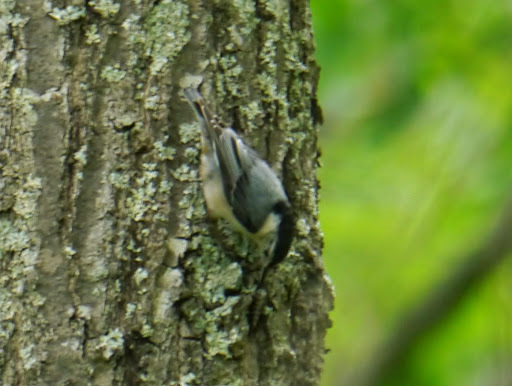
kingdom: Animalia
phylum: Chordata
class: Aves
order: Passeriformes
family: Sittidae
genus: Sitta
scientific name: Sitta carolinensis
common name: White-breasted nuthatch
